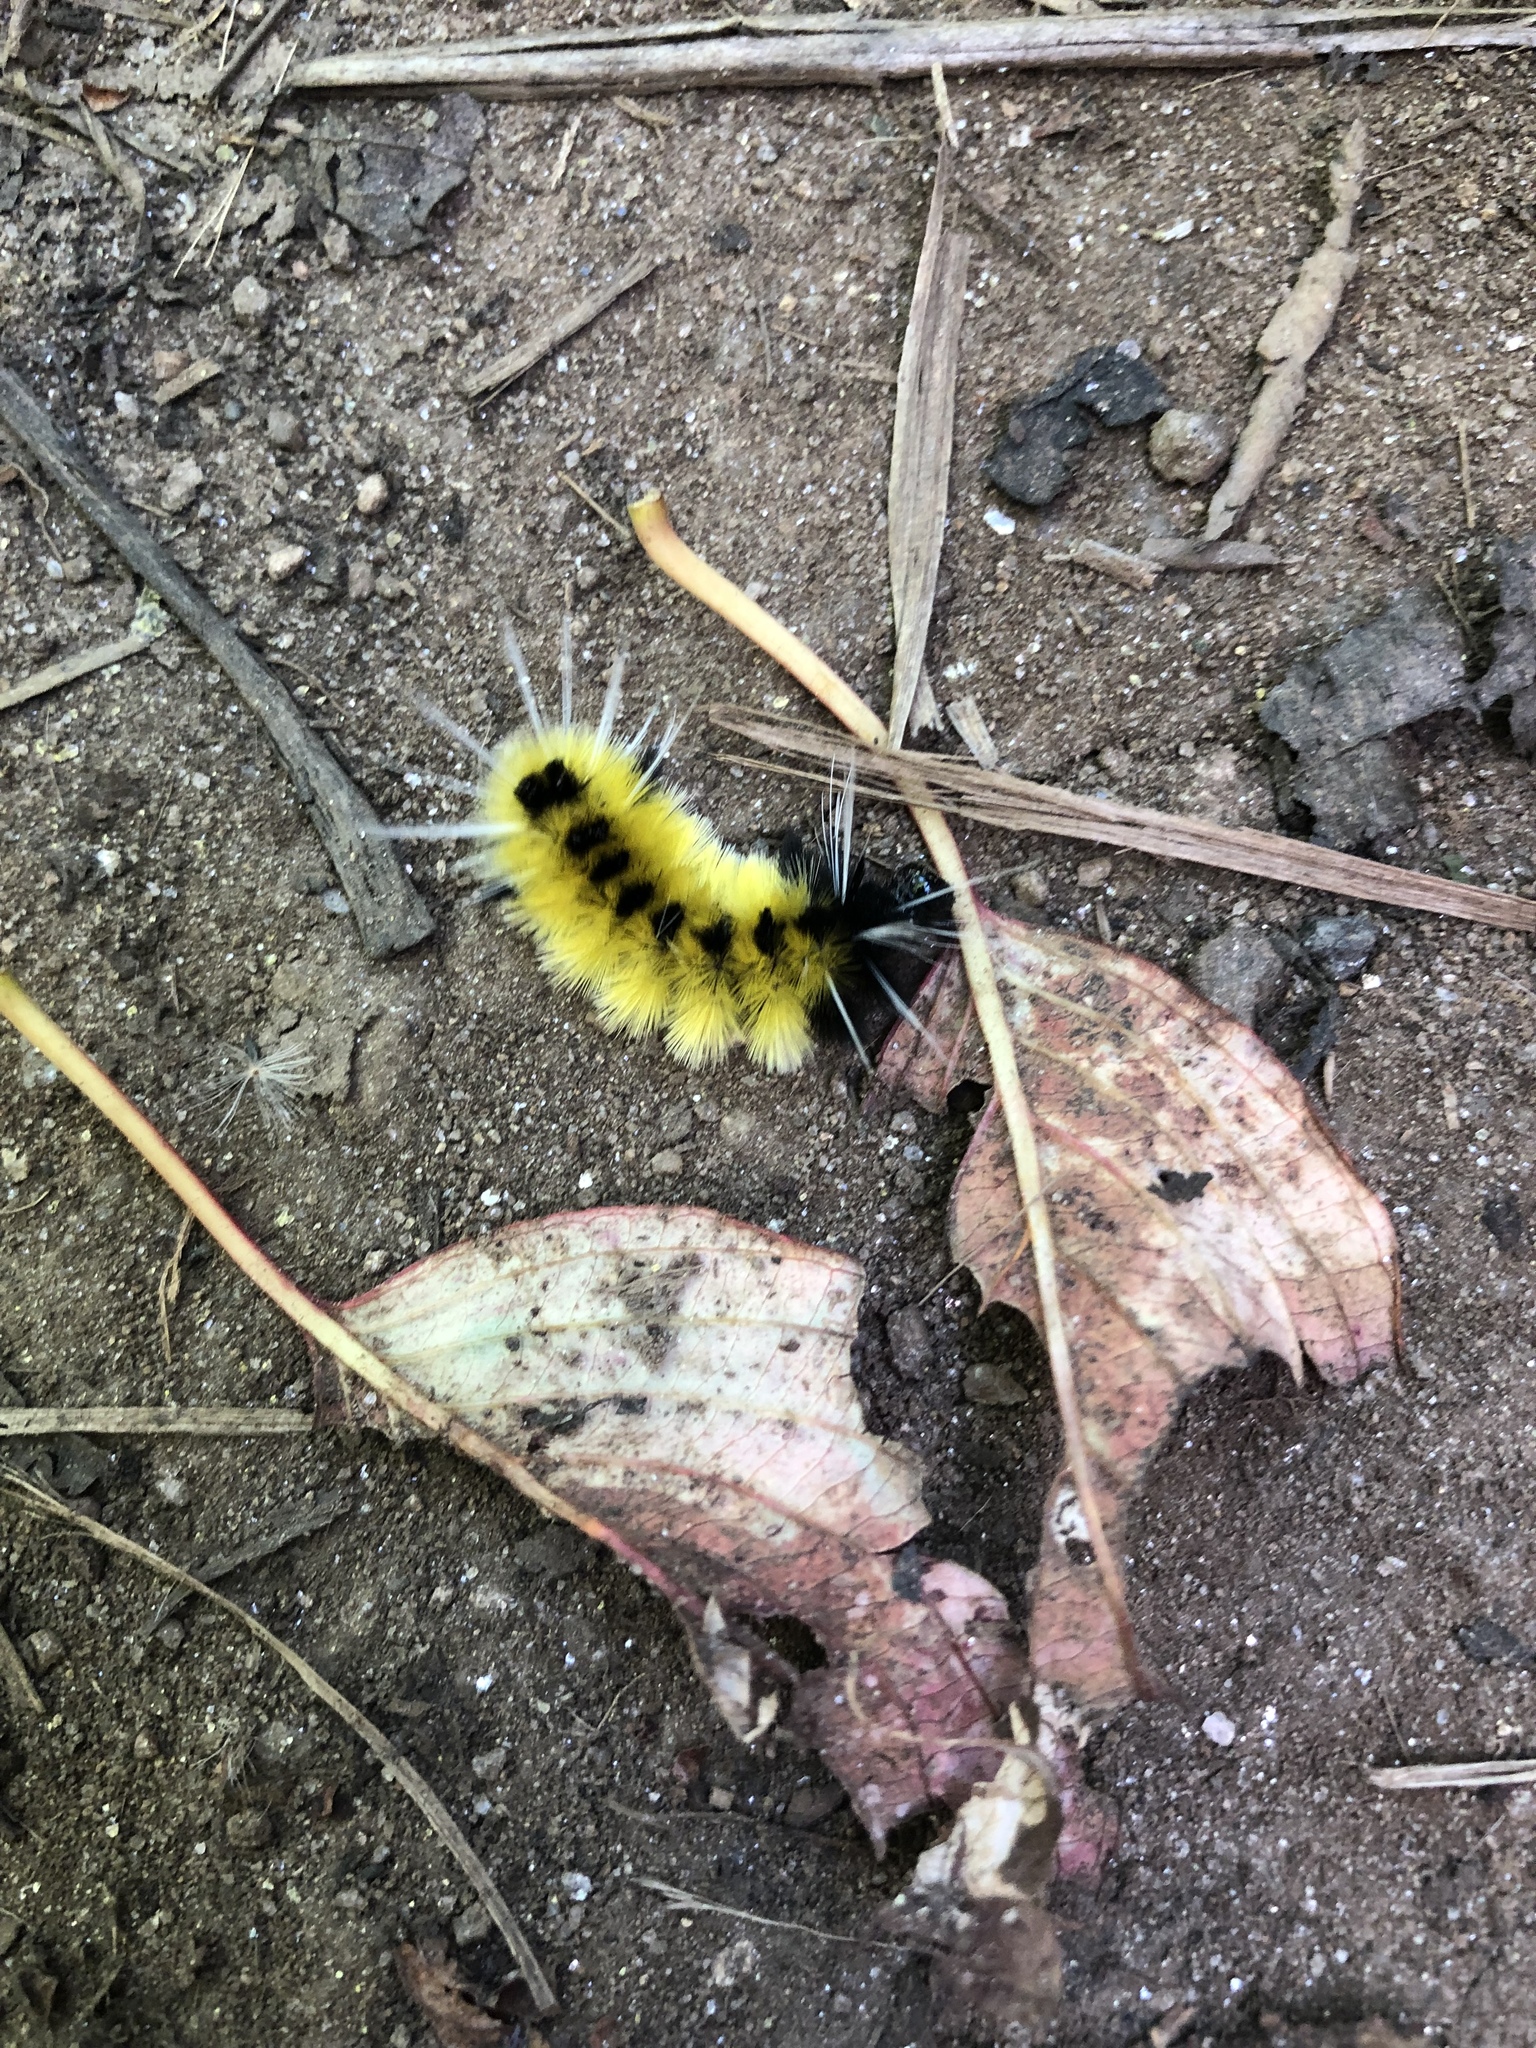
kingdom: Animalia
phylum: Arthropoda
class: Insecta
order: Lepidoptera
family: Erebidae
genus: Lophocampa
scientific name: Lophocampa maculata
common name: Spotted tussock moth
